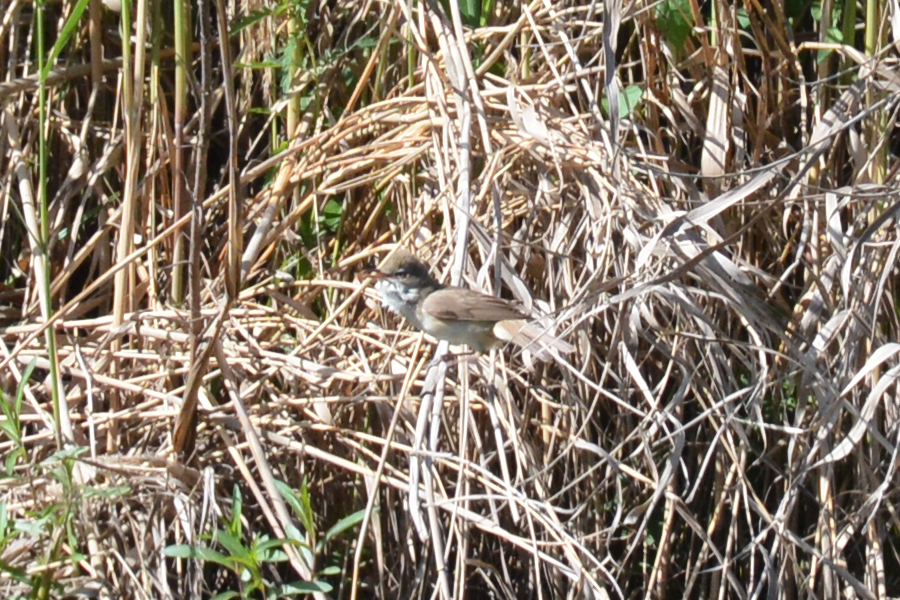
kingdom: Animalia
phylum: Chordata
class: Aves
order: Passeriformes
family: Acrocephalidae
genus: Acrocephalus
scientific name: Acrocephalus arundinaceus
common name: Great reed warbler
